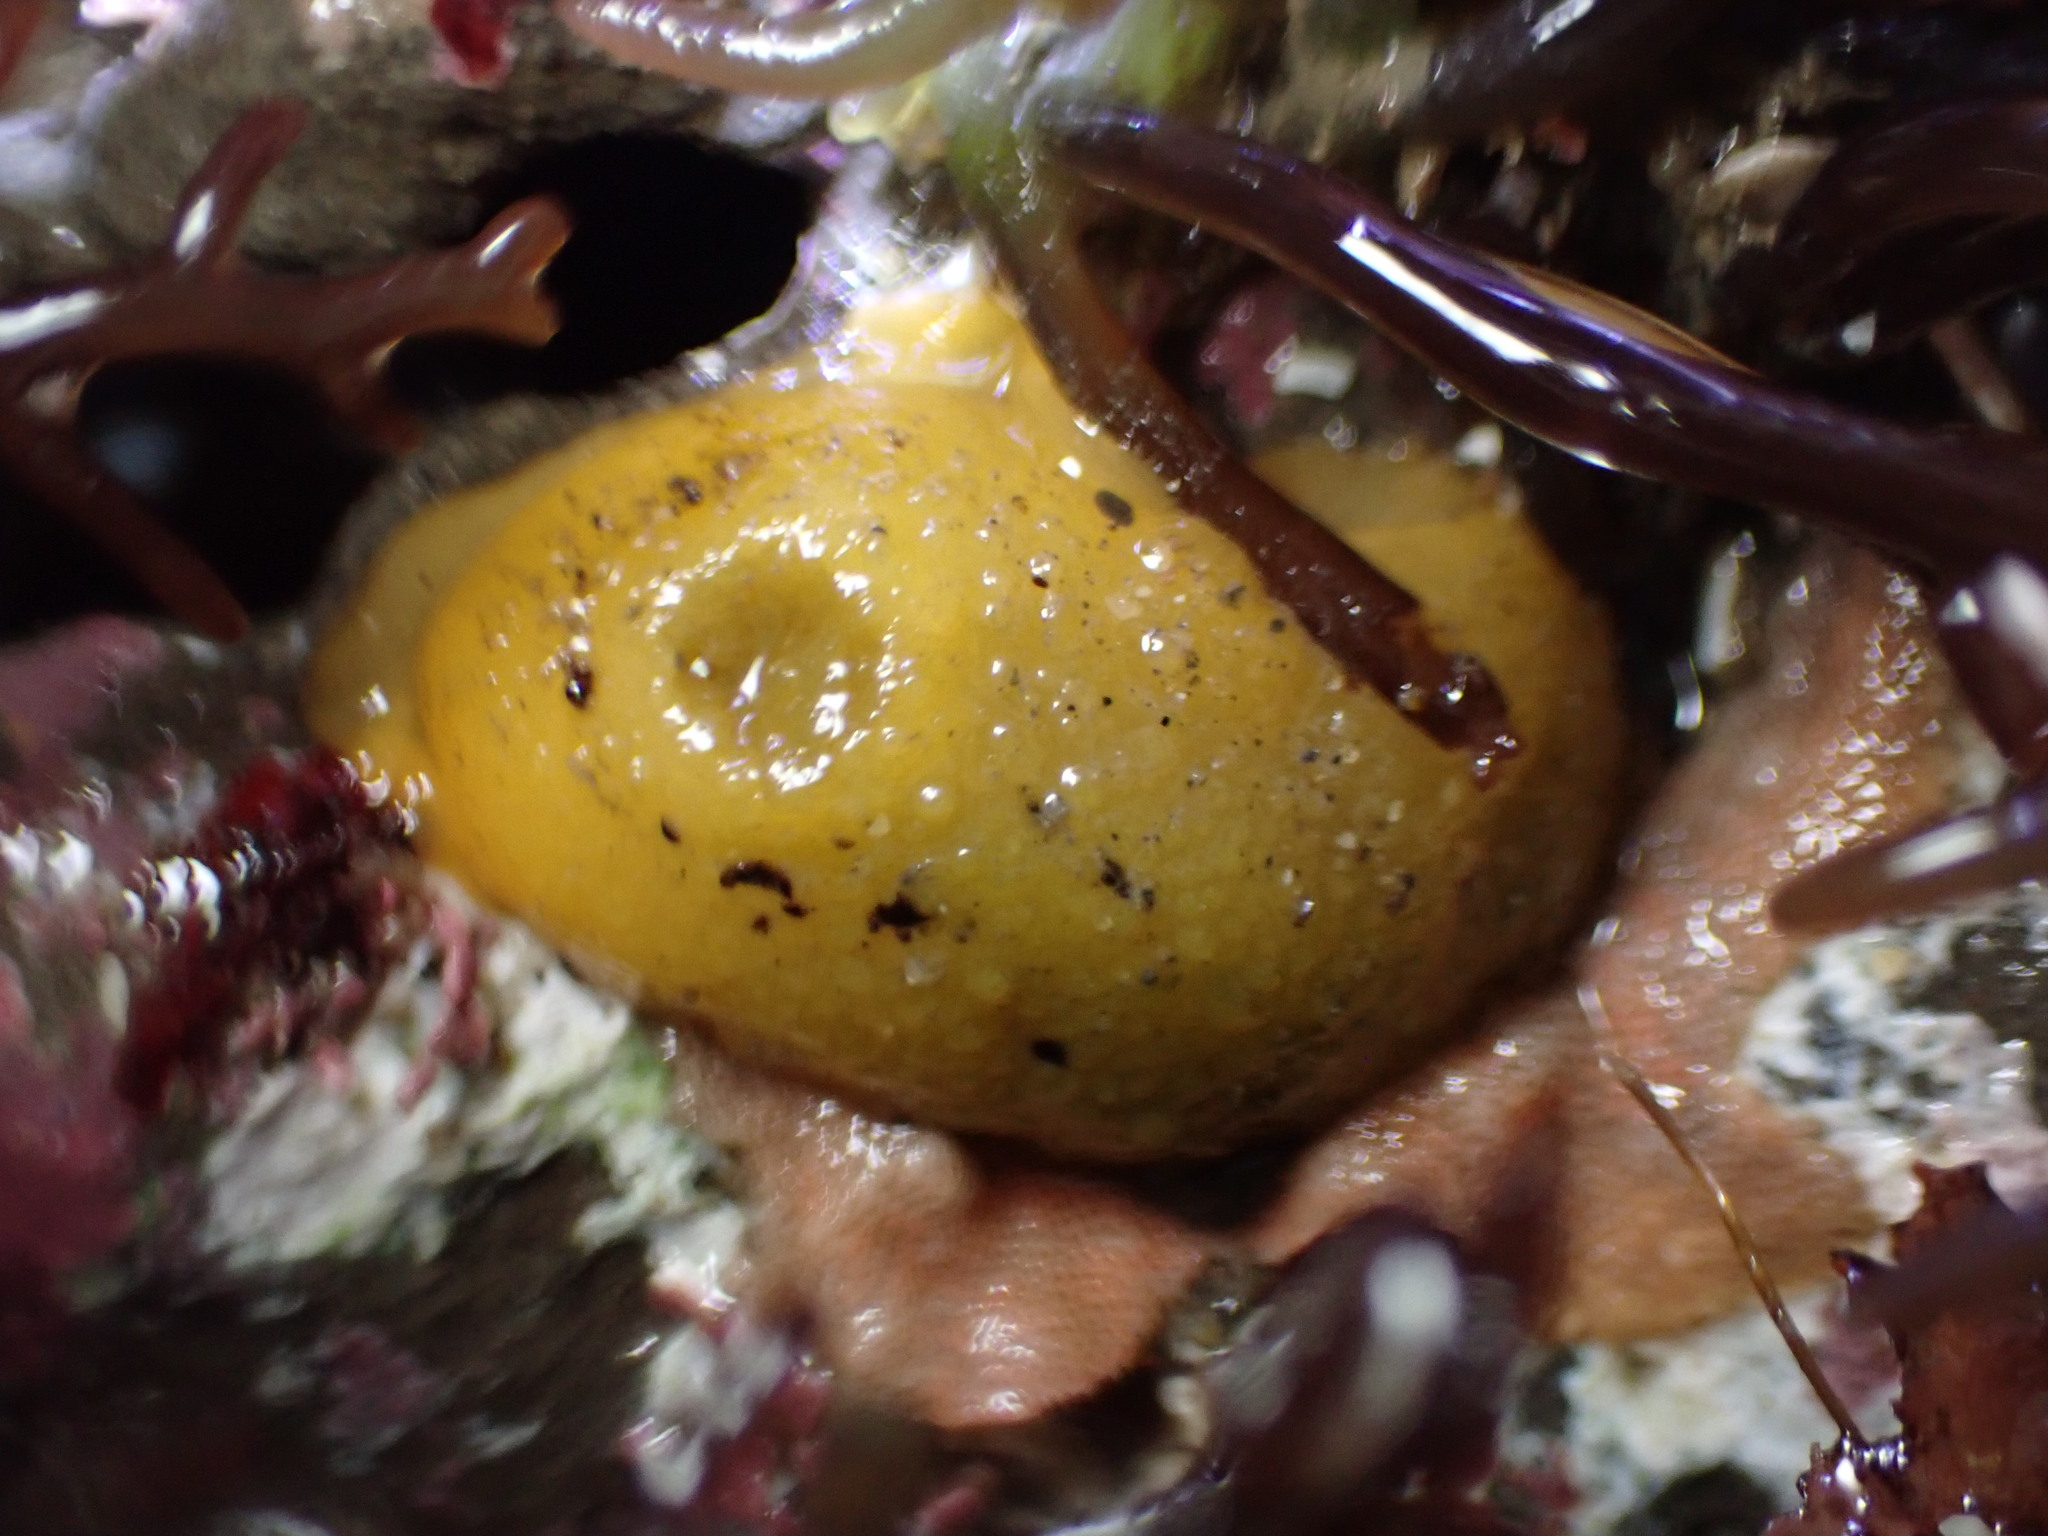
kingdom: Animalia
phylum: Mollusca
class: Gastropoda
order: Nudibranchia
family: Dorididae
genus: Doris
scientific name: Doris montereyensis
